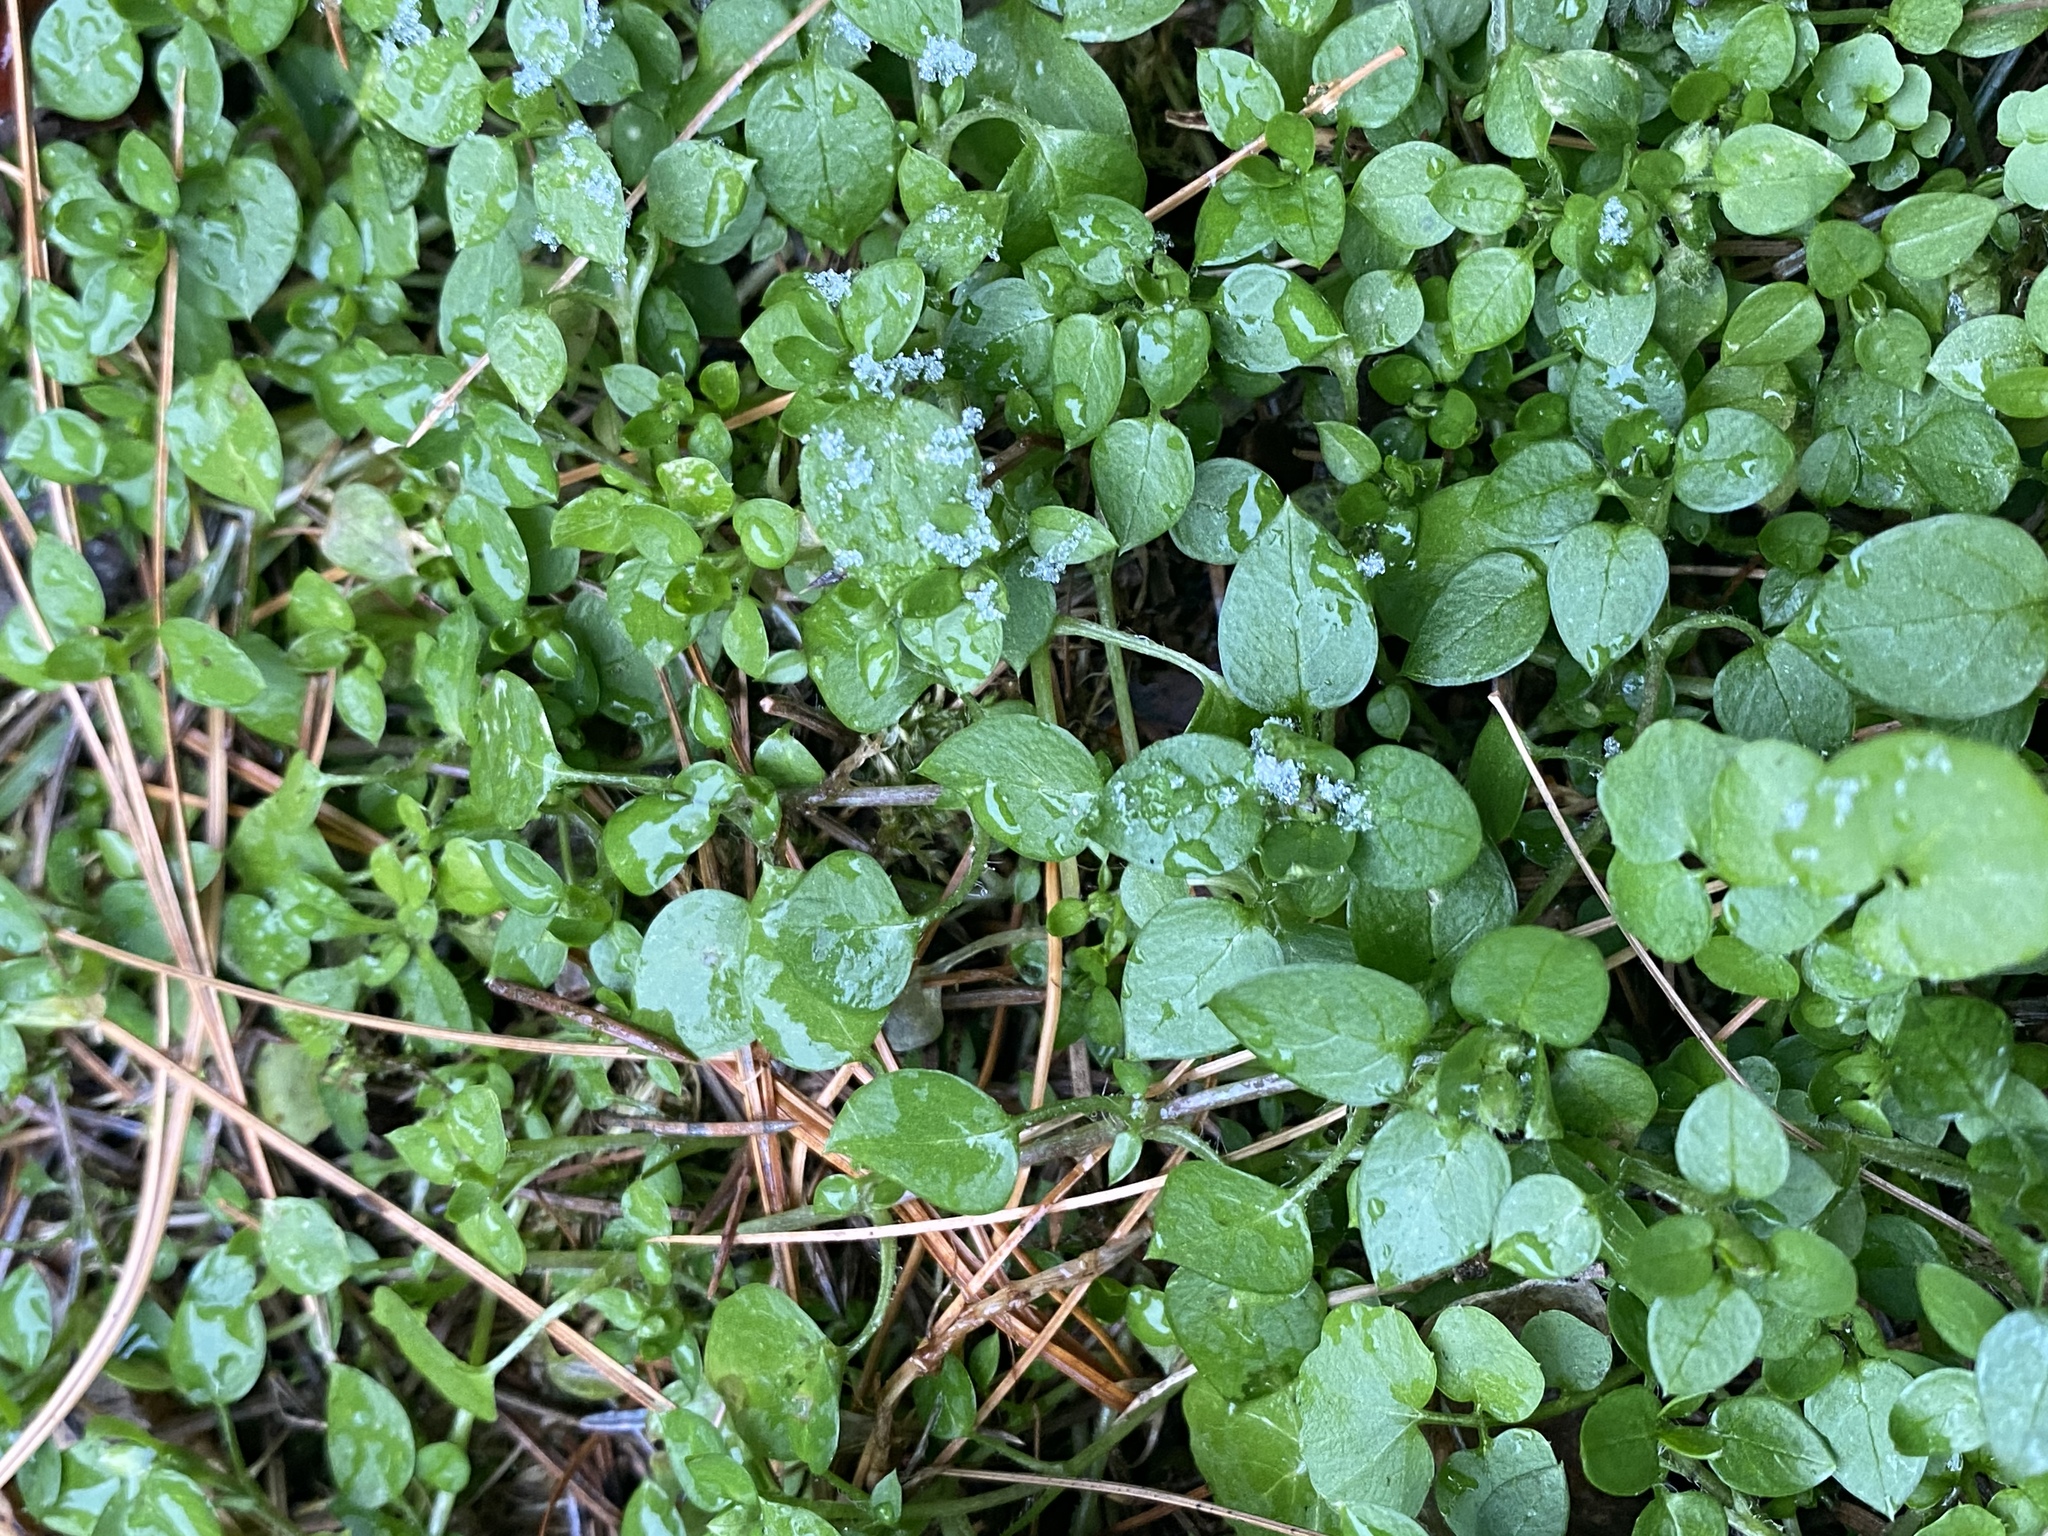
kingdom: Plantae
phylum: Tracheophyta
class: Magnoliopsida
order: Caryophyllales
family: Caryophyllaceae
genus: Stellaria
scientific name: Stellaria media
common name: Common chickweed
